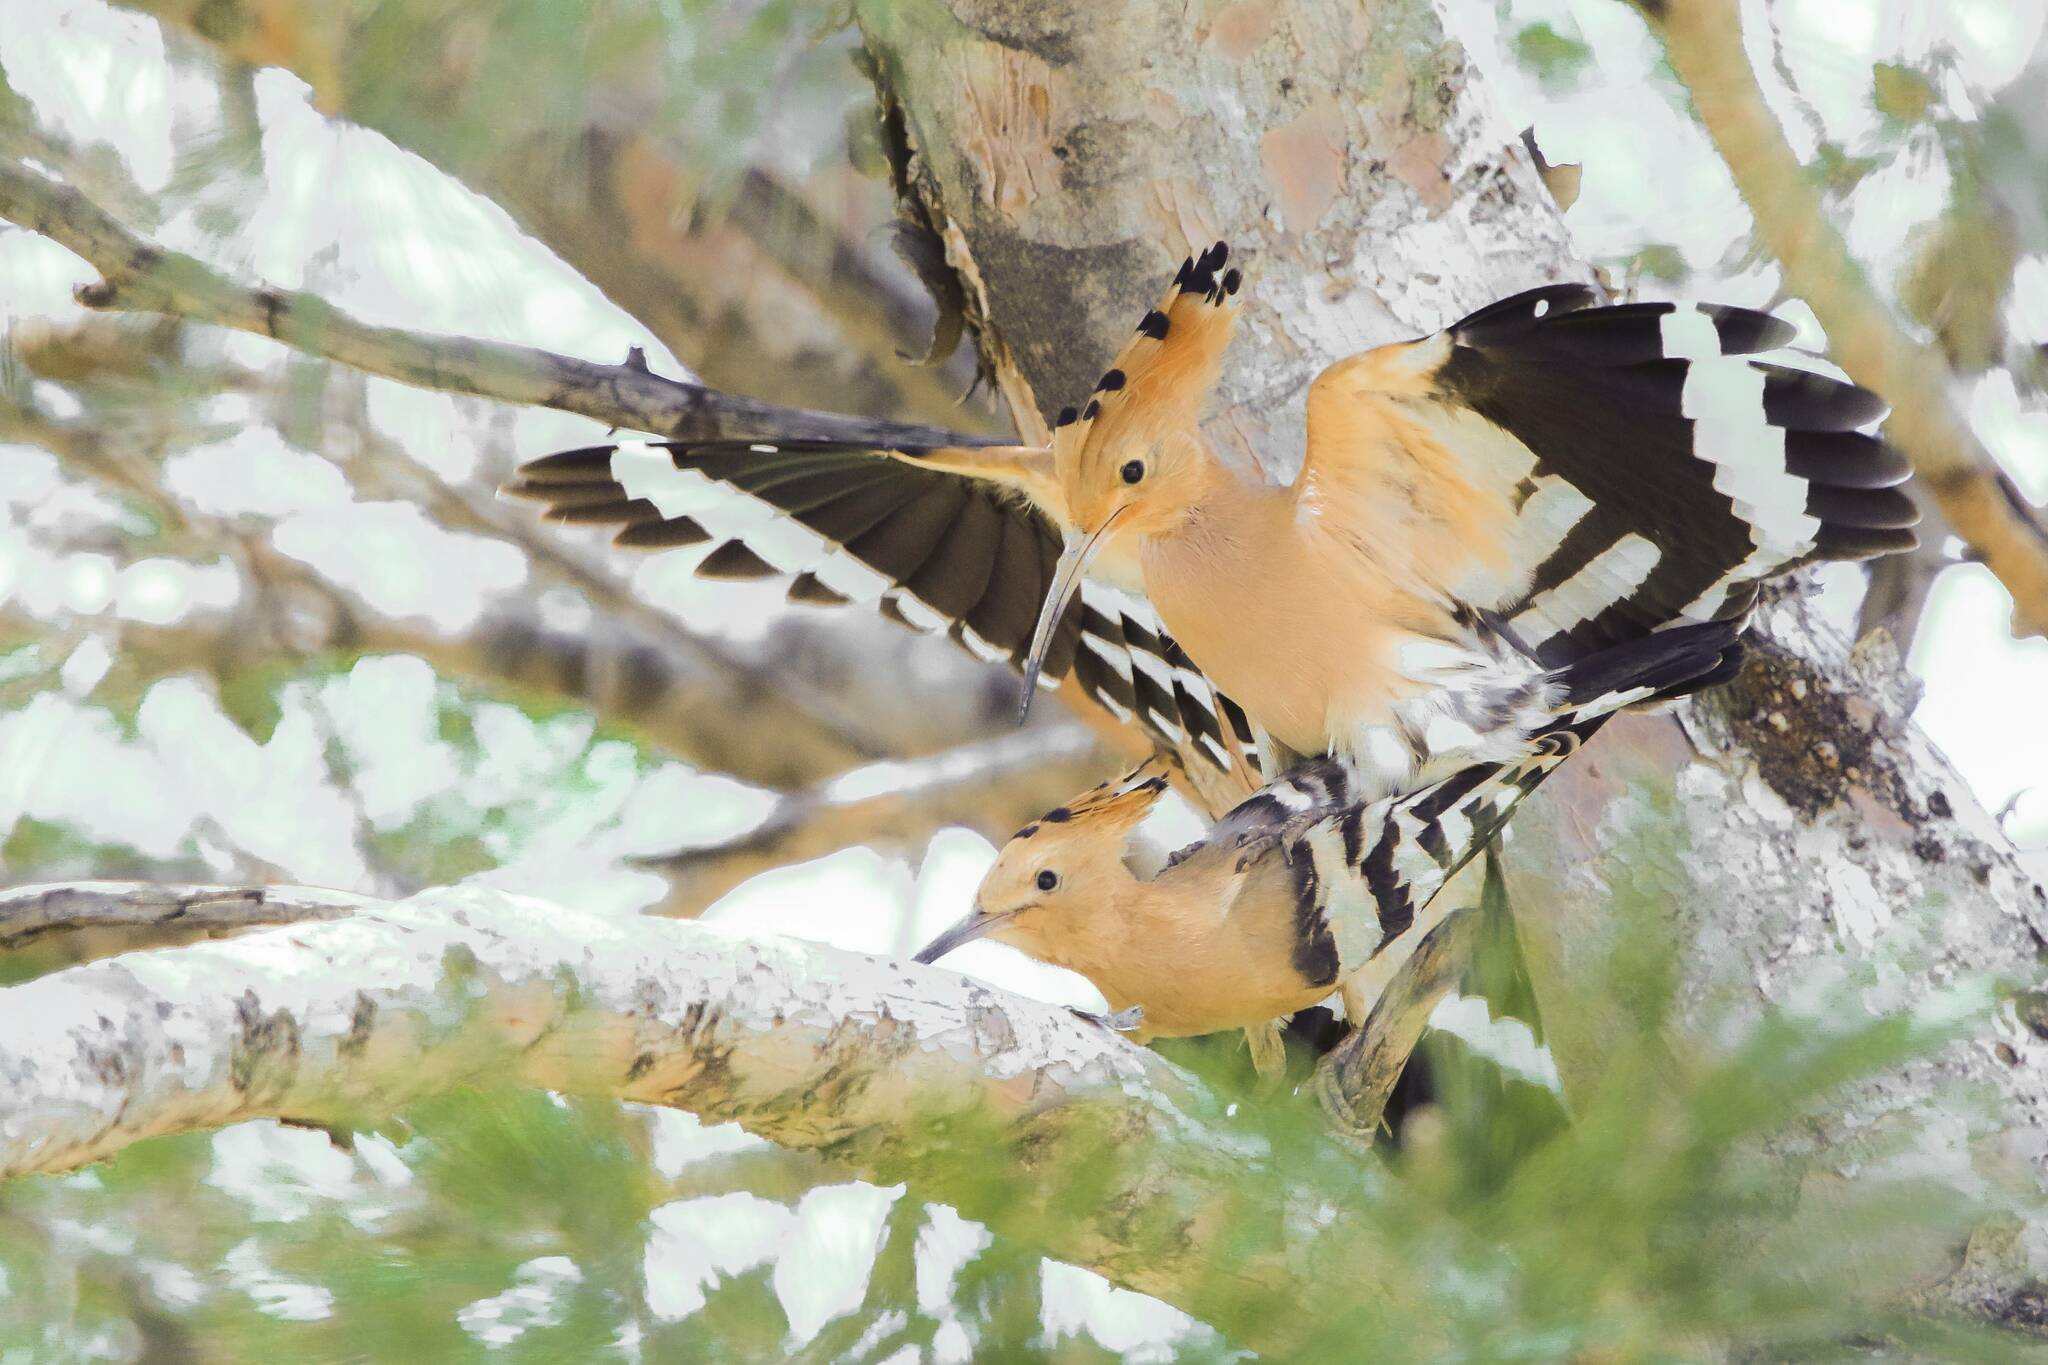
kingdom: Animalia
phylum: Chordata
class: Aves
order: Bucerotiformes
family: Upupidae
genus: Upupa
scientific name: Upupa epops
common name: Eurasian hoopoe
